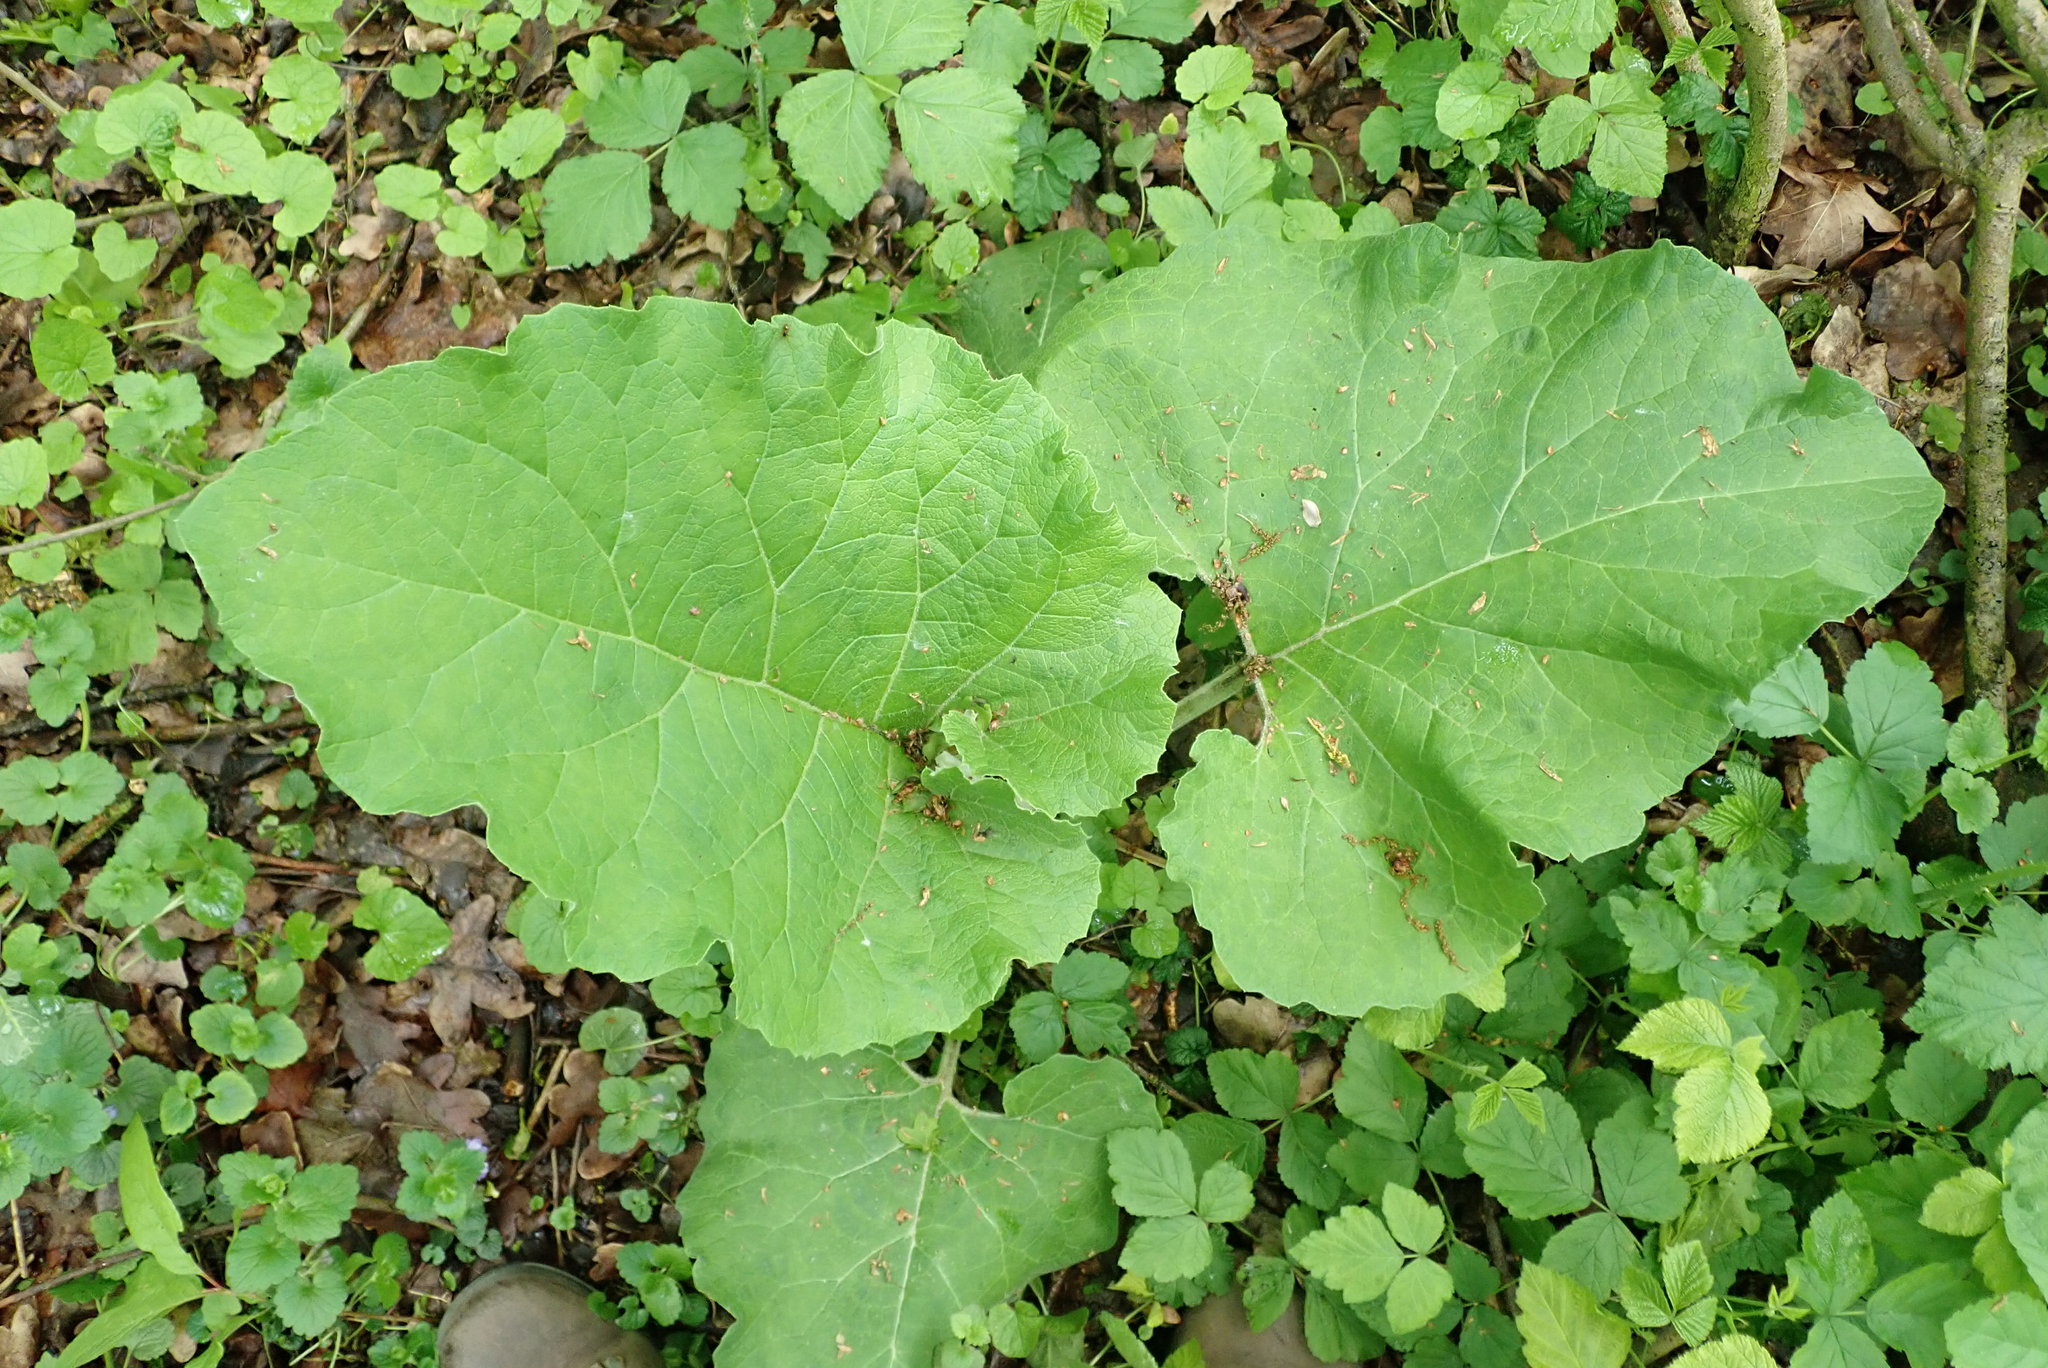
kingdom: Plantae
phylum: Tracheophyta
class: Magnoliopsida
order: Asterales
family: Asteraceae
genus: Arctium
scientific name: Arctium lappa
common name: Greater burdock
